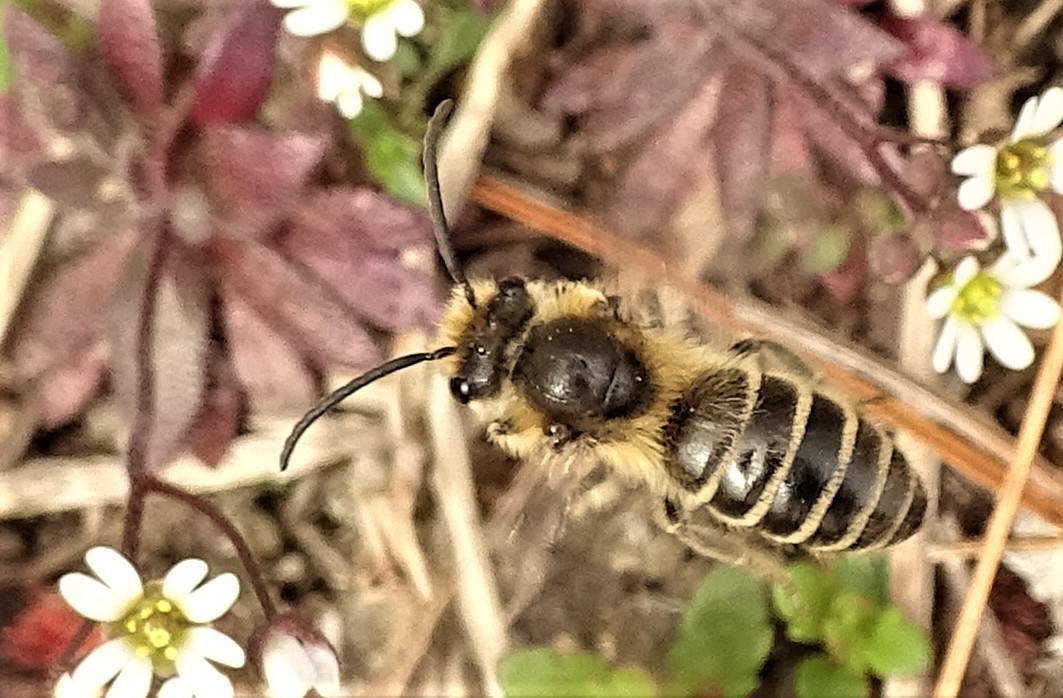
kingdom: Animalia
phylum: Arthropoda
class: Insecta
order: Hymenoptera
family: Colletidae
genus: Colletes
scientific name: Colletes inaequalis
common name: Unequal cellophane bee
